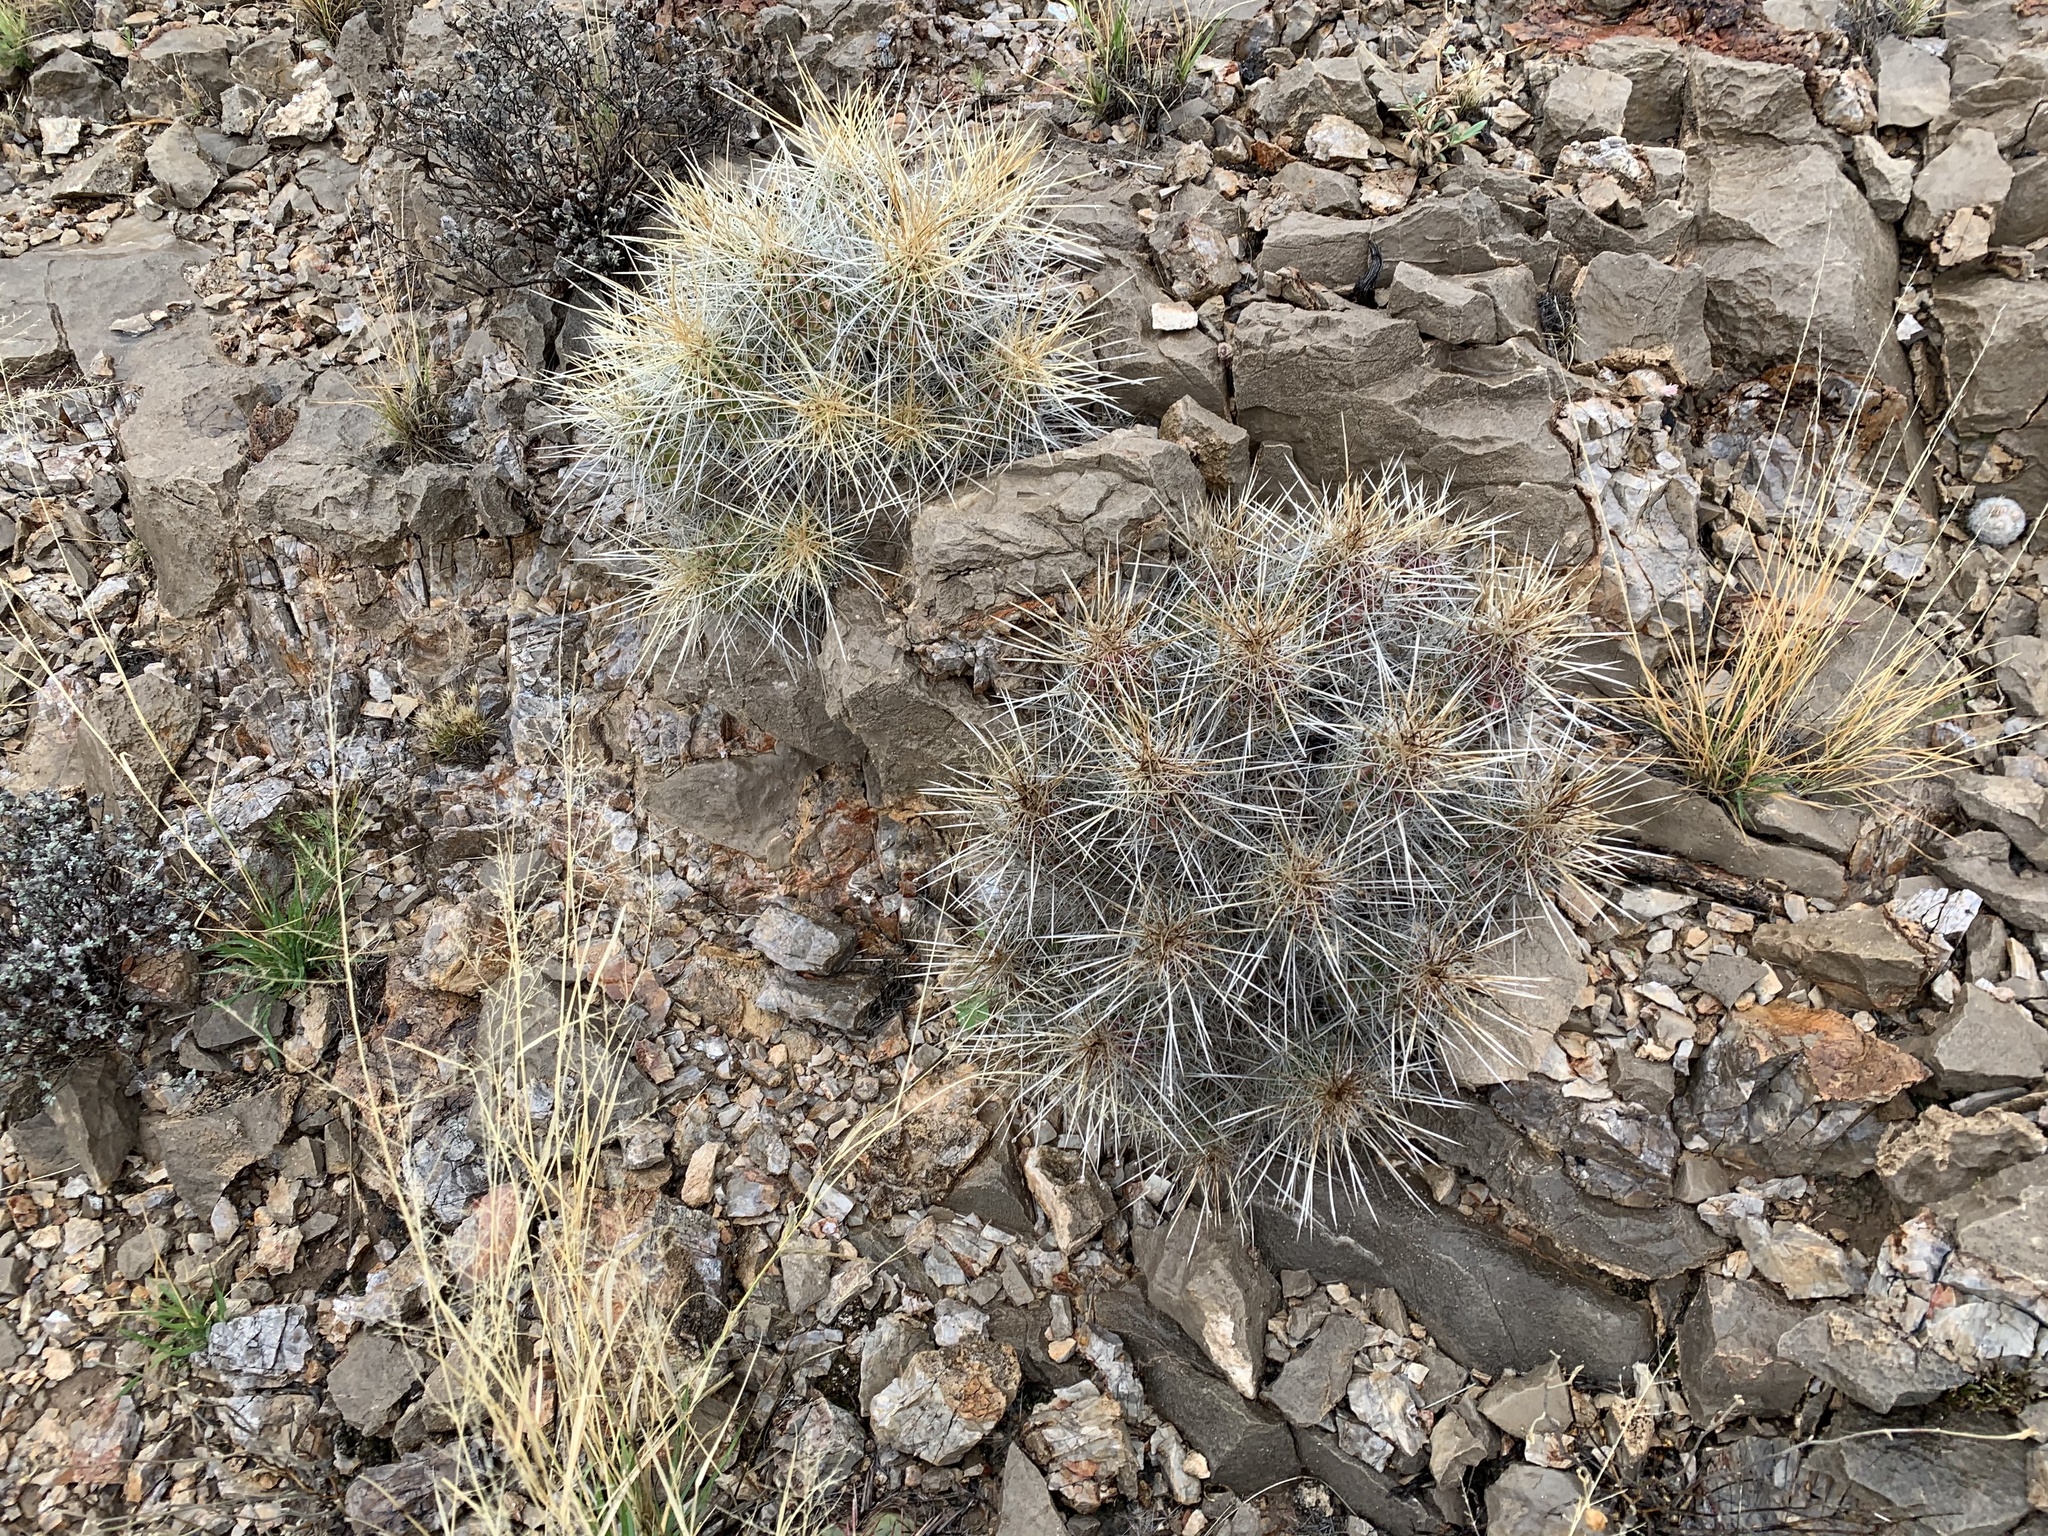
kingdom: Plantae
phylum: Tracheophyta
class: Magnoliopsida
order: Caryophyllales
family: Cactaceae
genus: Echinocereus
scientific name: Echinocereus stramineus
